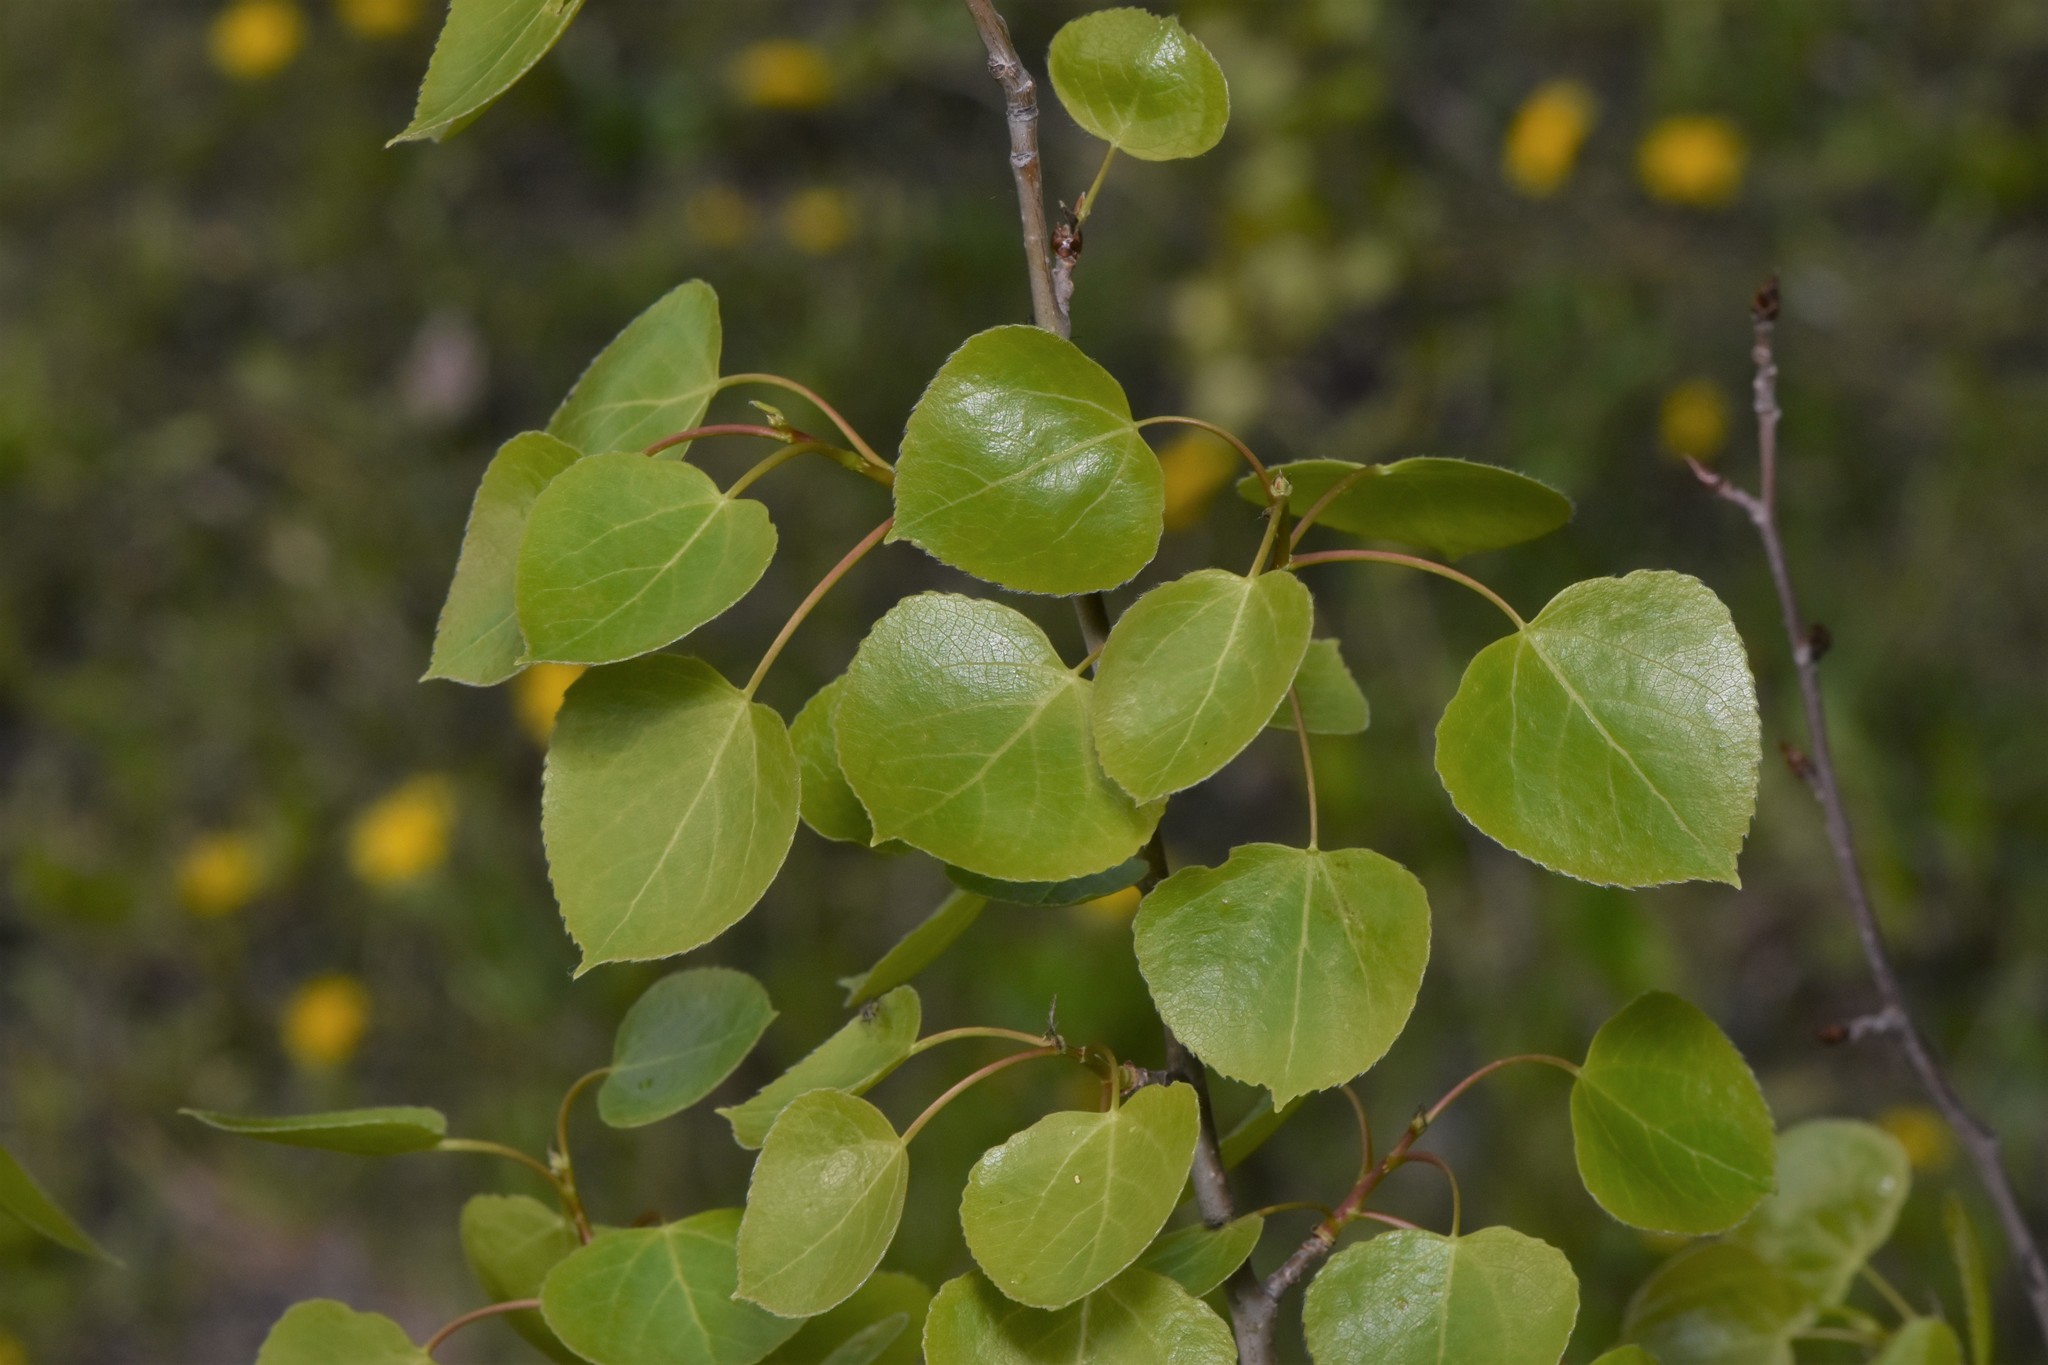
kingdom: Plantae
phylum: Tracheophyta
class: Magnoliopsida
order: Malpighiales
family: Salicaceae
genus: Populus
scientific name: Populus tremuloides
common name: Quaking aspen
